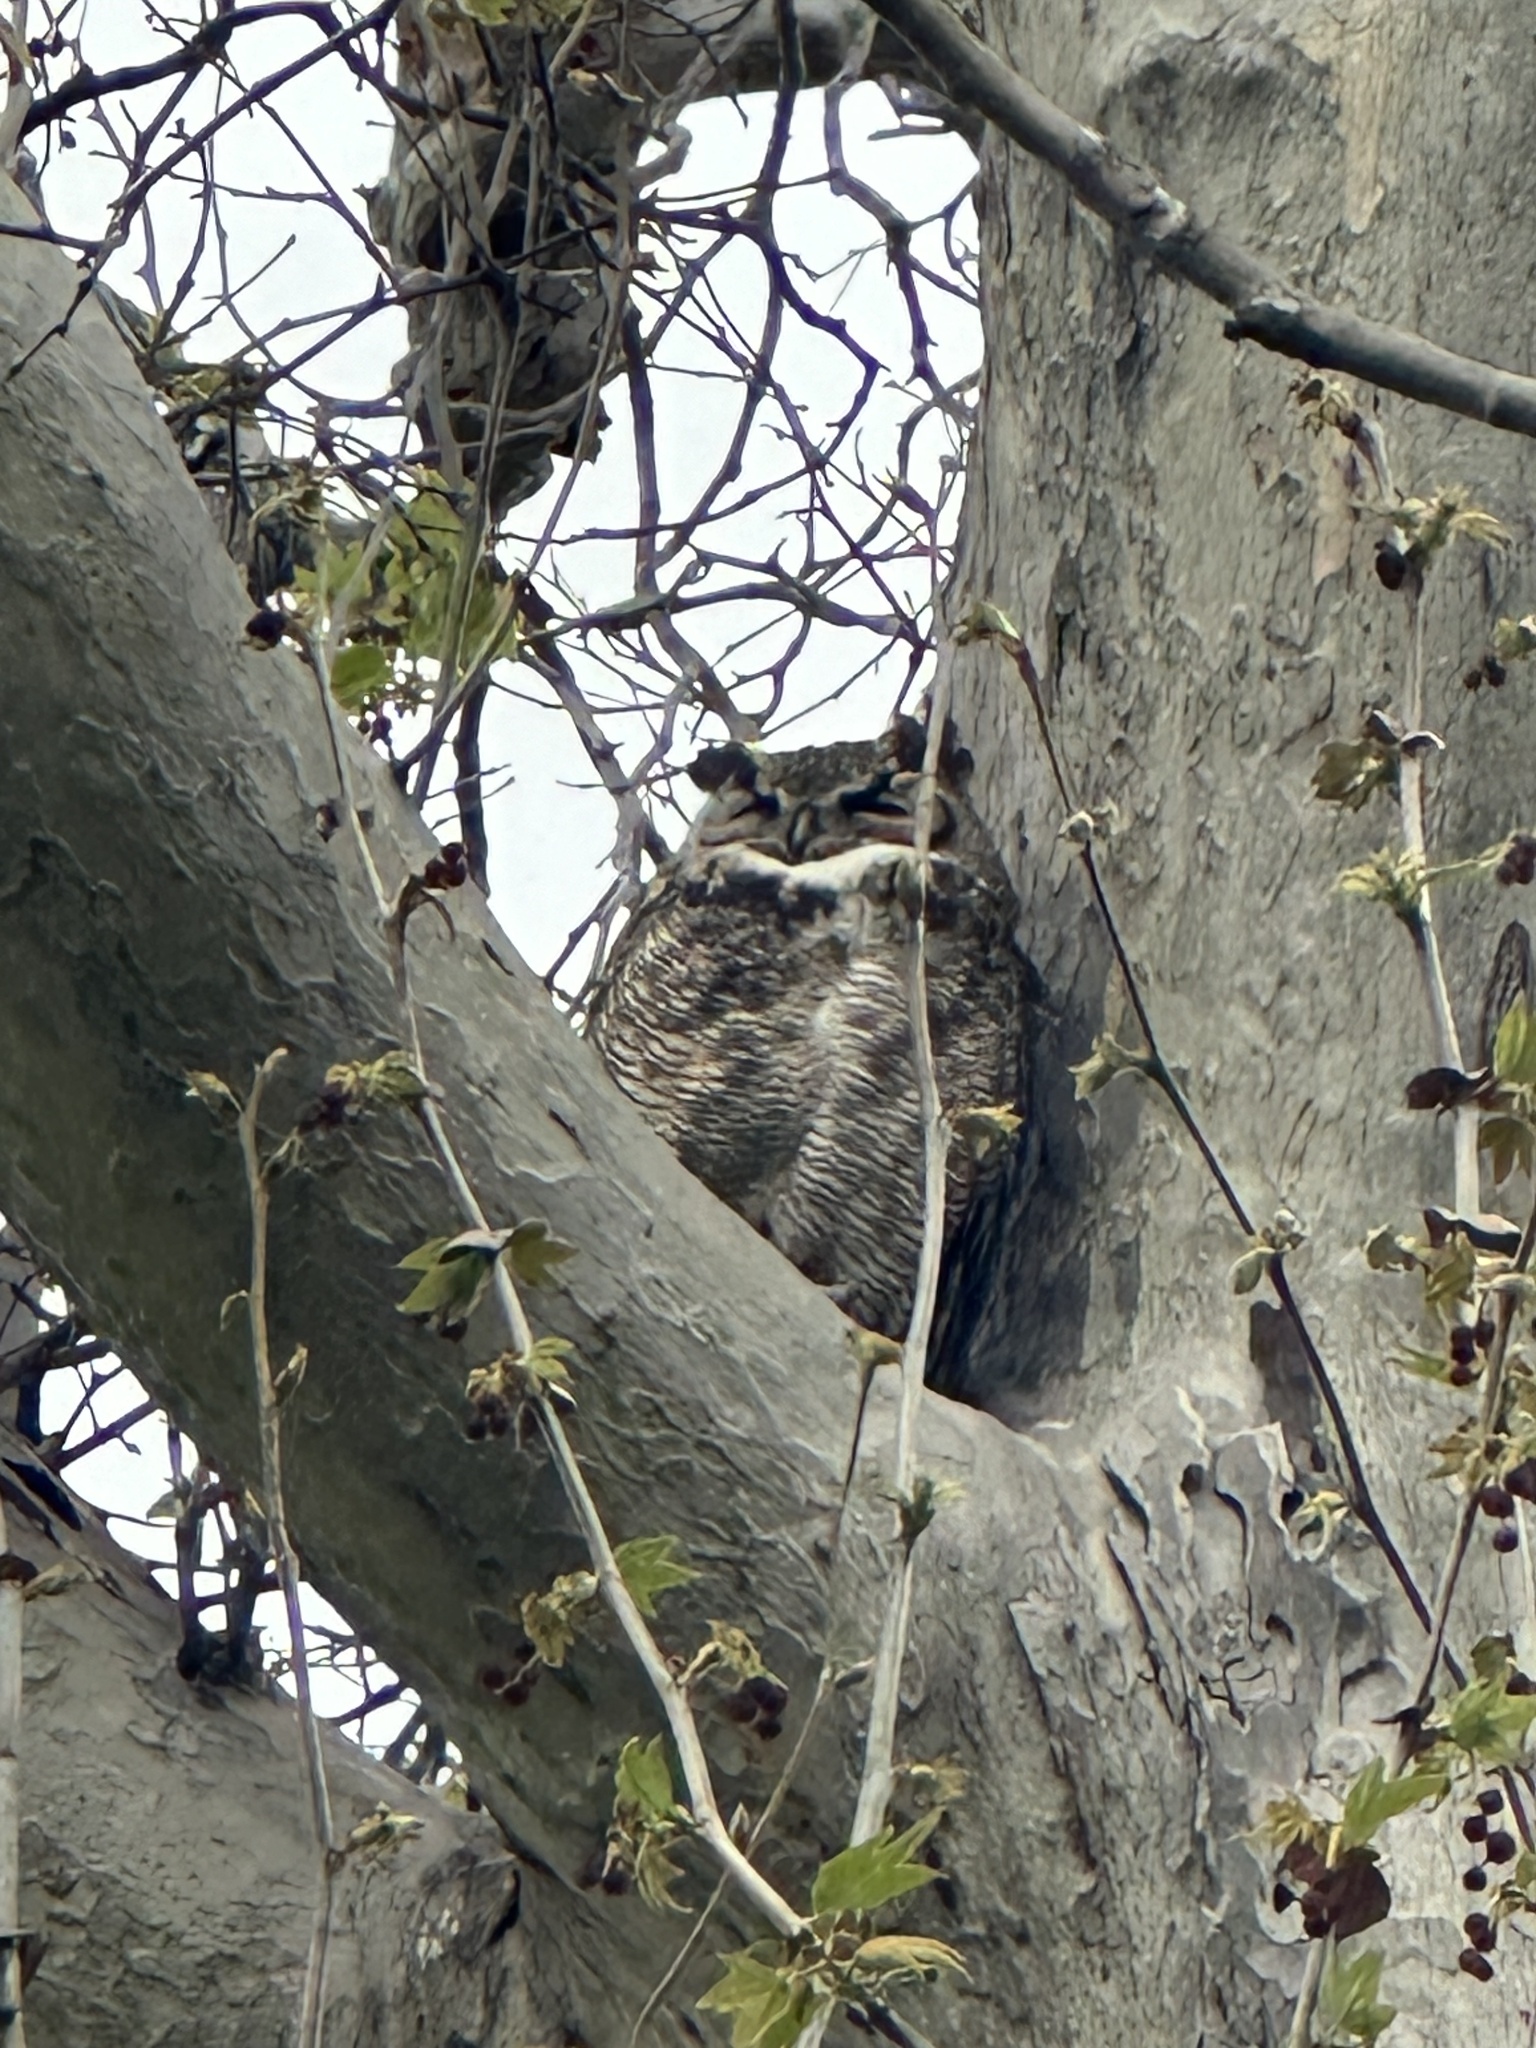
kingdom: Animalia
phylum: Chordata
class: Aves
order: Strigiformes
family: Strigidae
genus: Bubo
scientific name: Bubo virginianus
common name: Great horned owl
